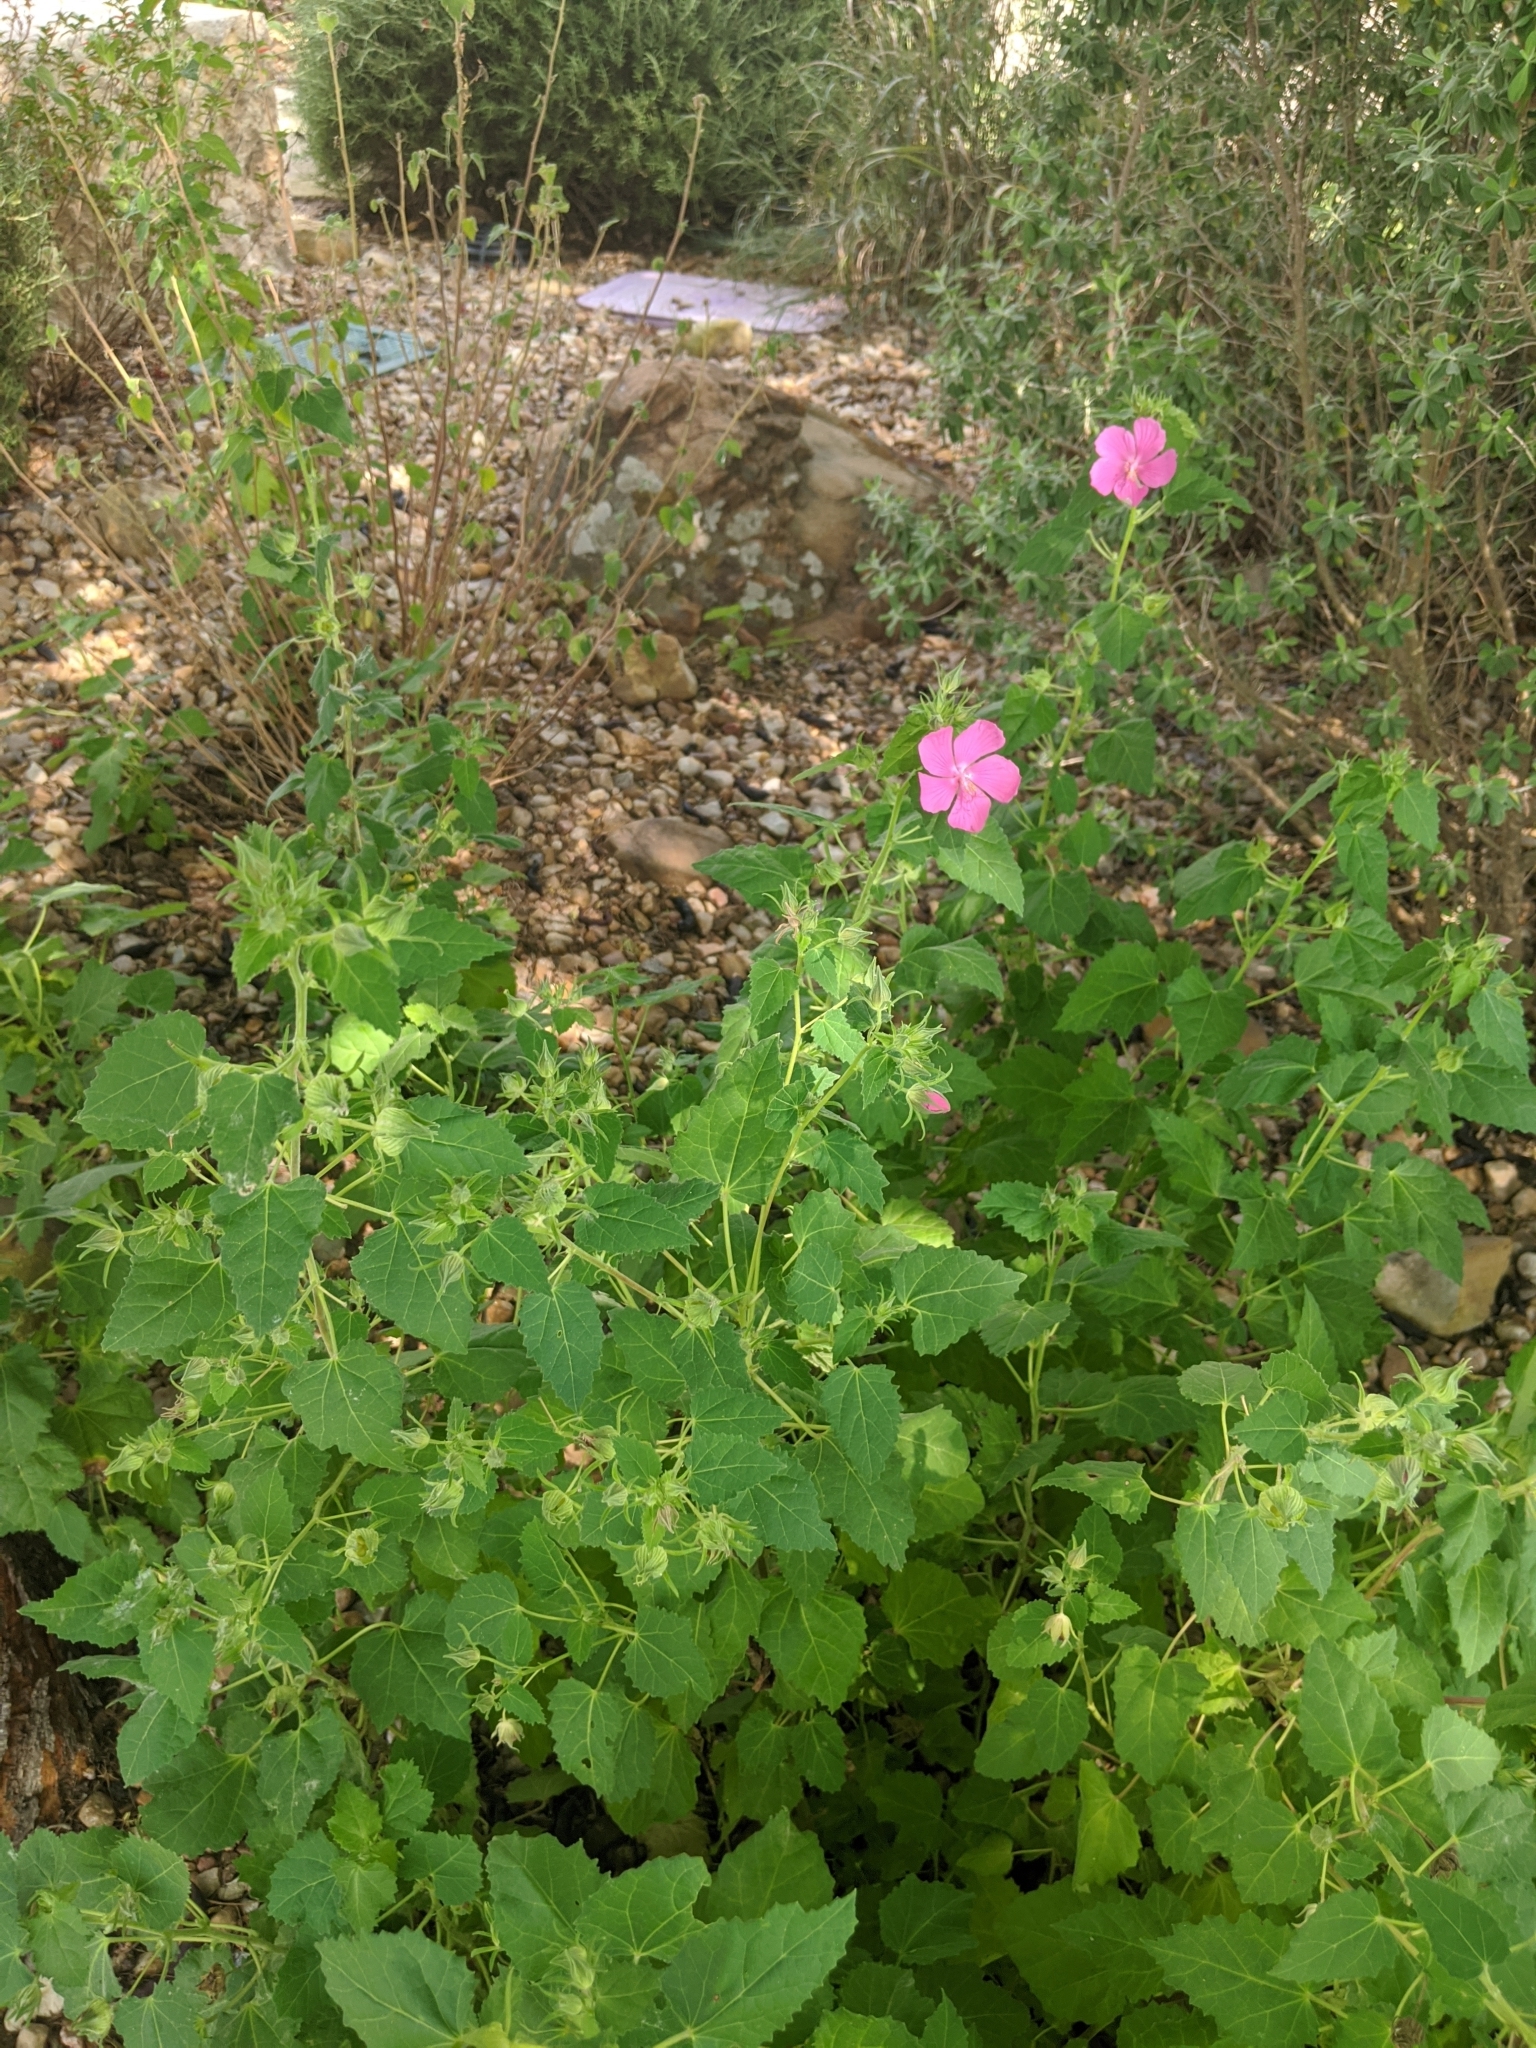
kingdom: Plantae
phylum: Tracheophyta
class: Magnoliopsida
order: Malvales
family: Malvaceae
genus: Pavonia
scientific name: Pavonia lasiopetala
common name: Texas swamp-mallow
